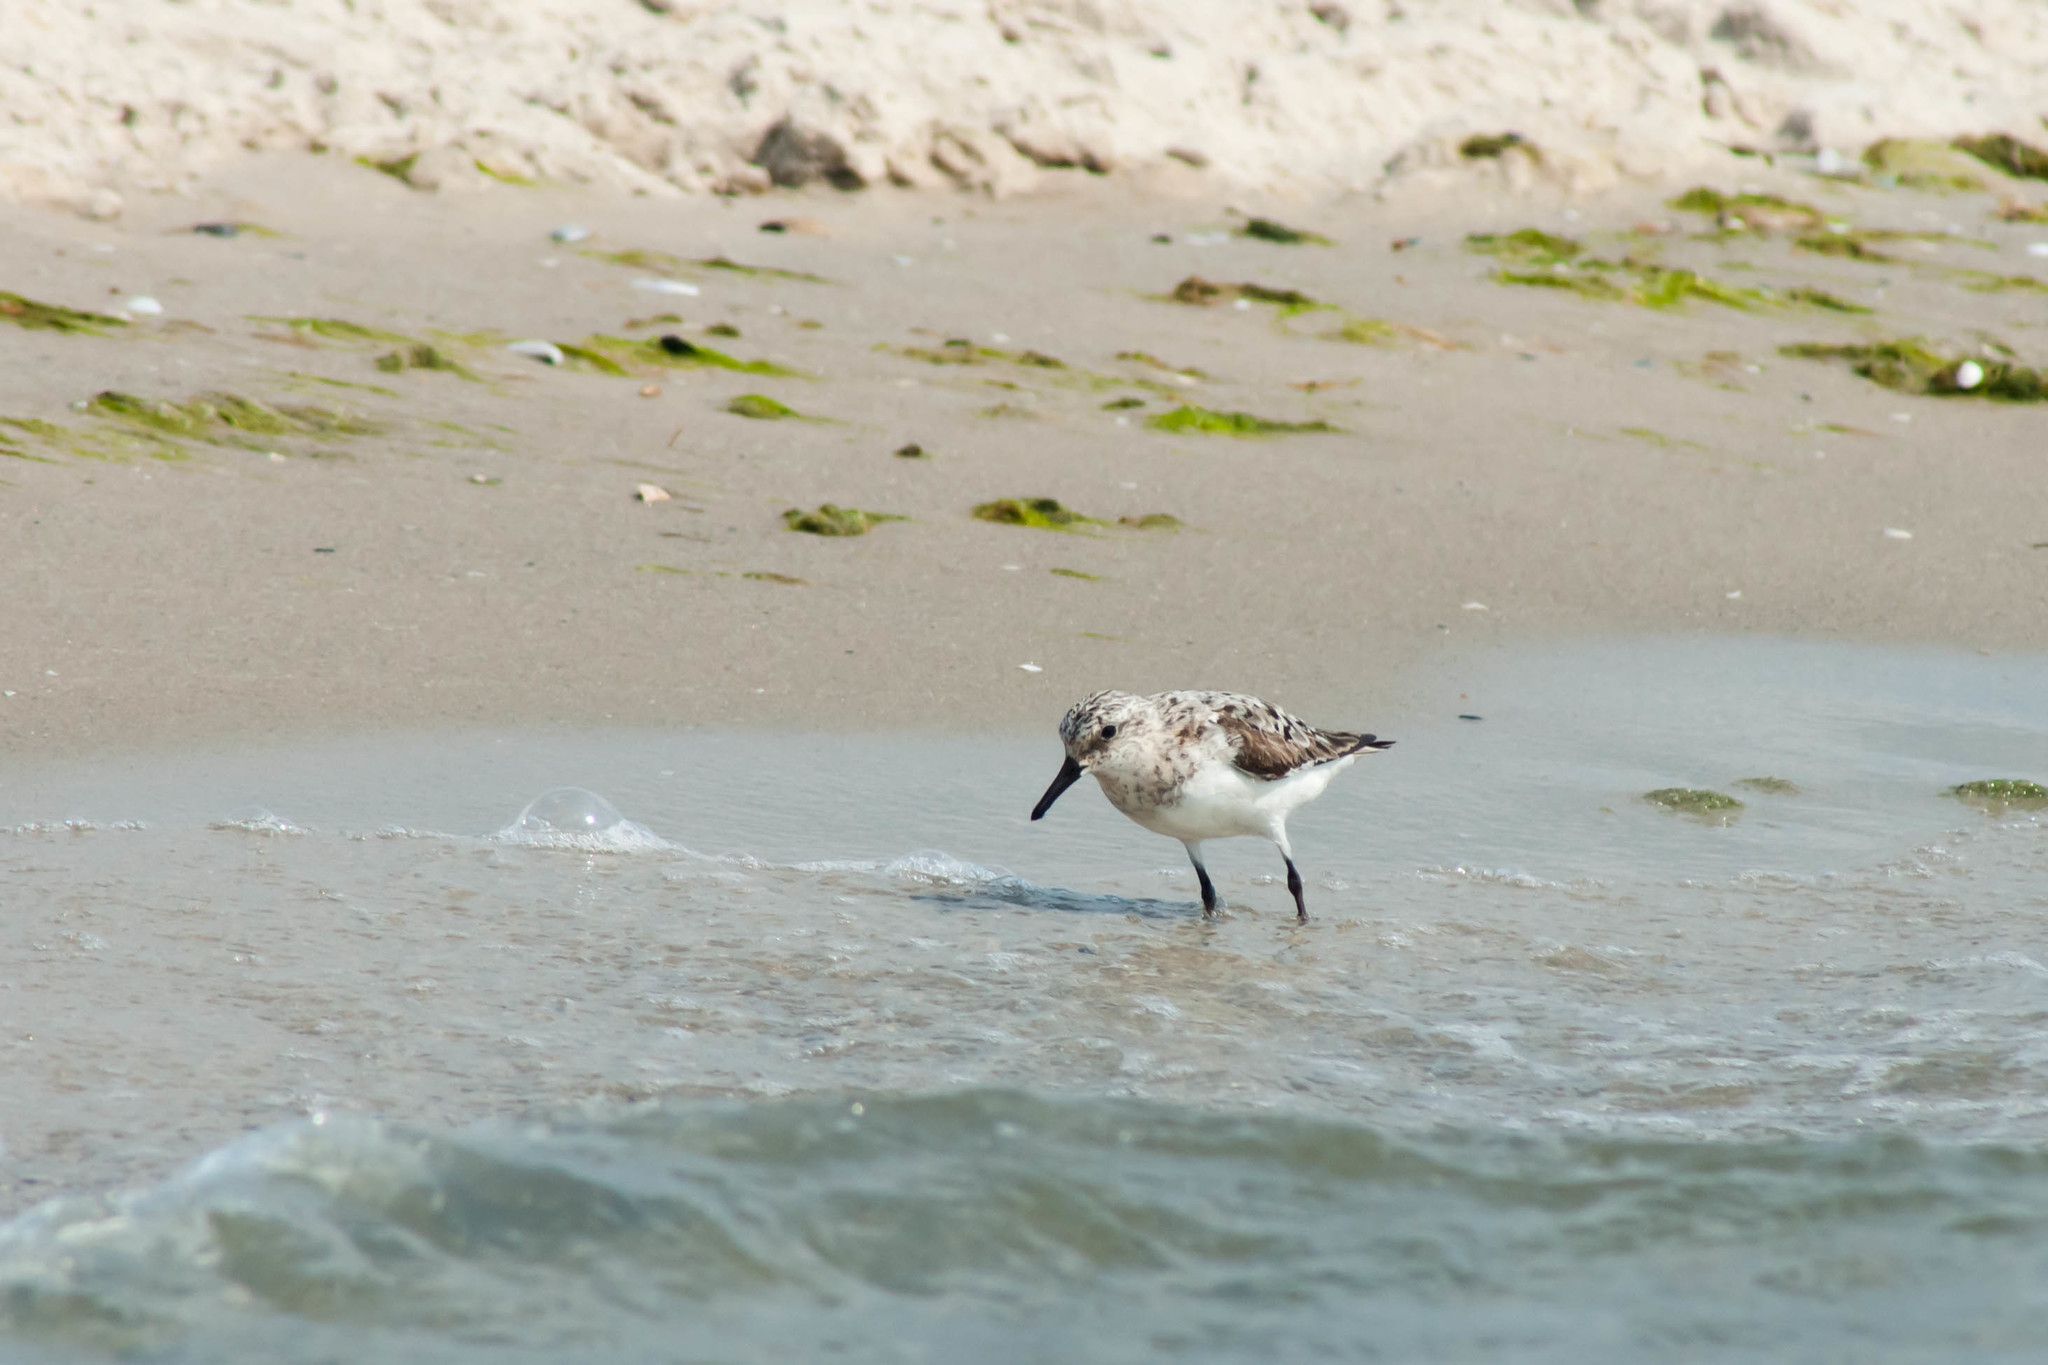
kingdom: Animalia
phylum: Chordata
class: Aves
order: Charadriiformes
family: Scolopacidae
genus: Calidris
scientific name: Calidris alba
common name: Sanderling
